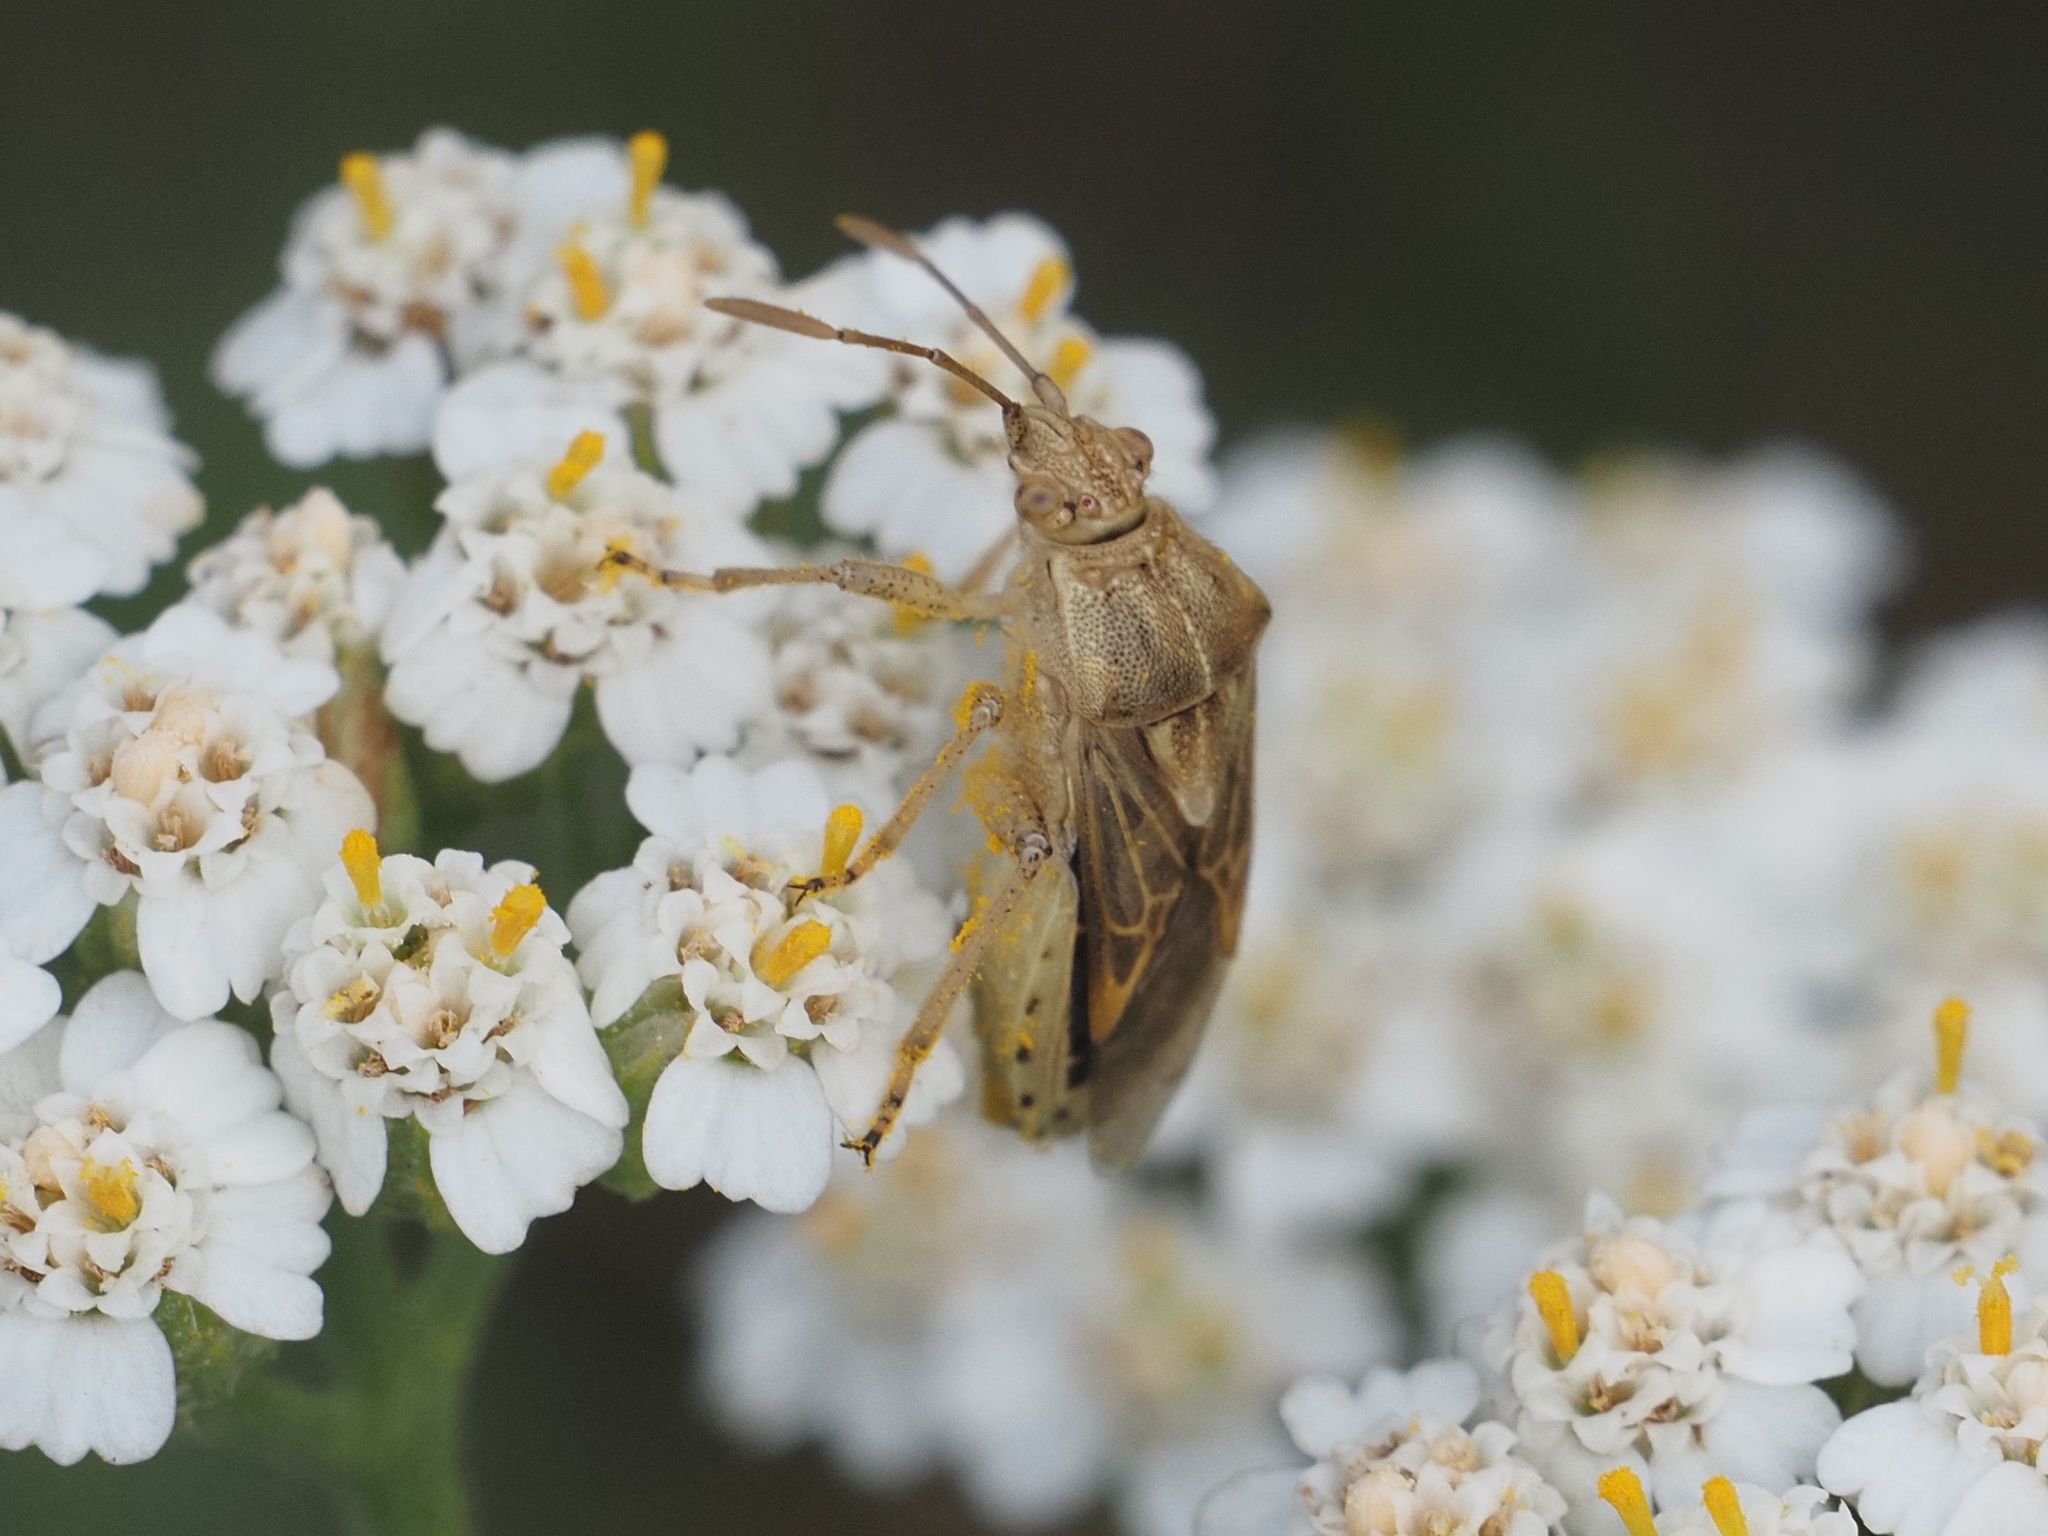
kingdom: Animalia
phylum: Arthropoda
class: Insecta
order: Hemiptera
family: Rhopalidae
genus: Stictopleurus
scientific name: Stictopleurus abutilon
